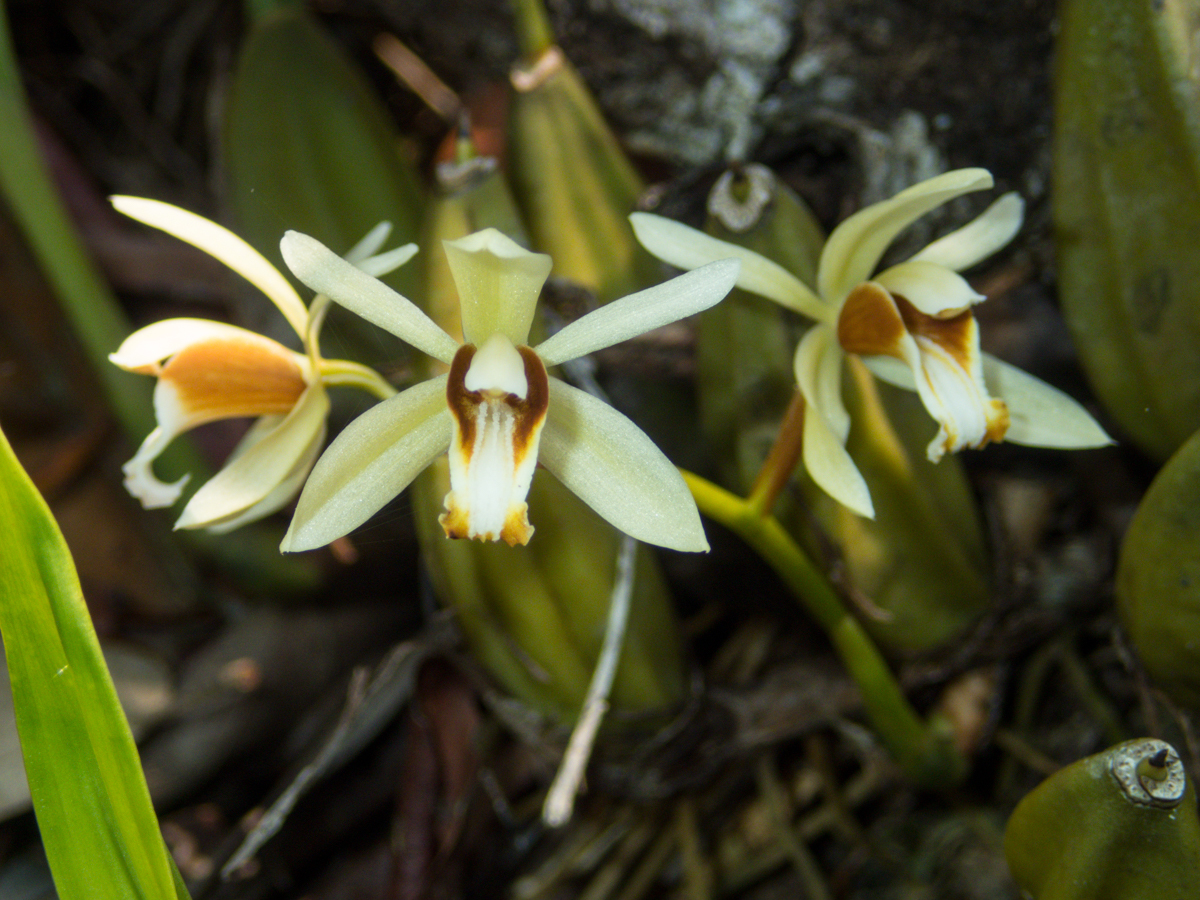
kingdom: Plantae
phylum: Tracheophyta
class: Liliopsida
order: Asparagales
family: Orchidaceae
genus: Coelogyne
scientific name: Coelogyne trinervis
